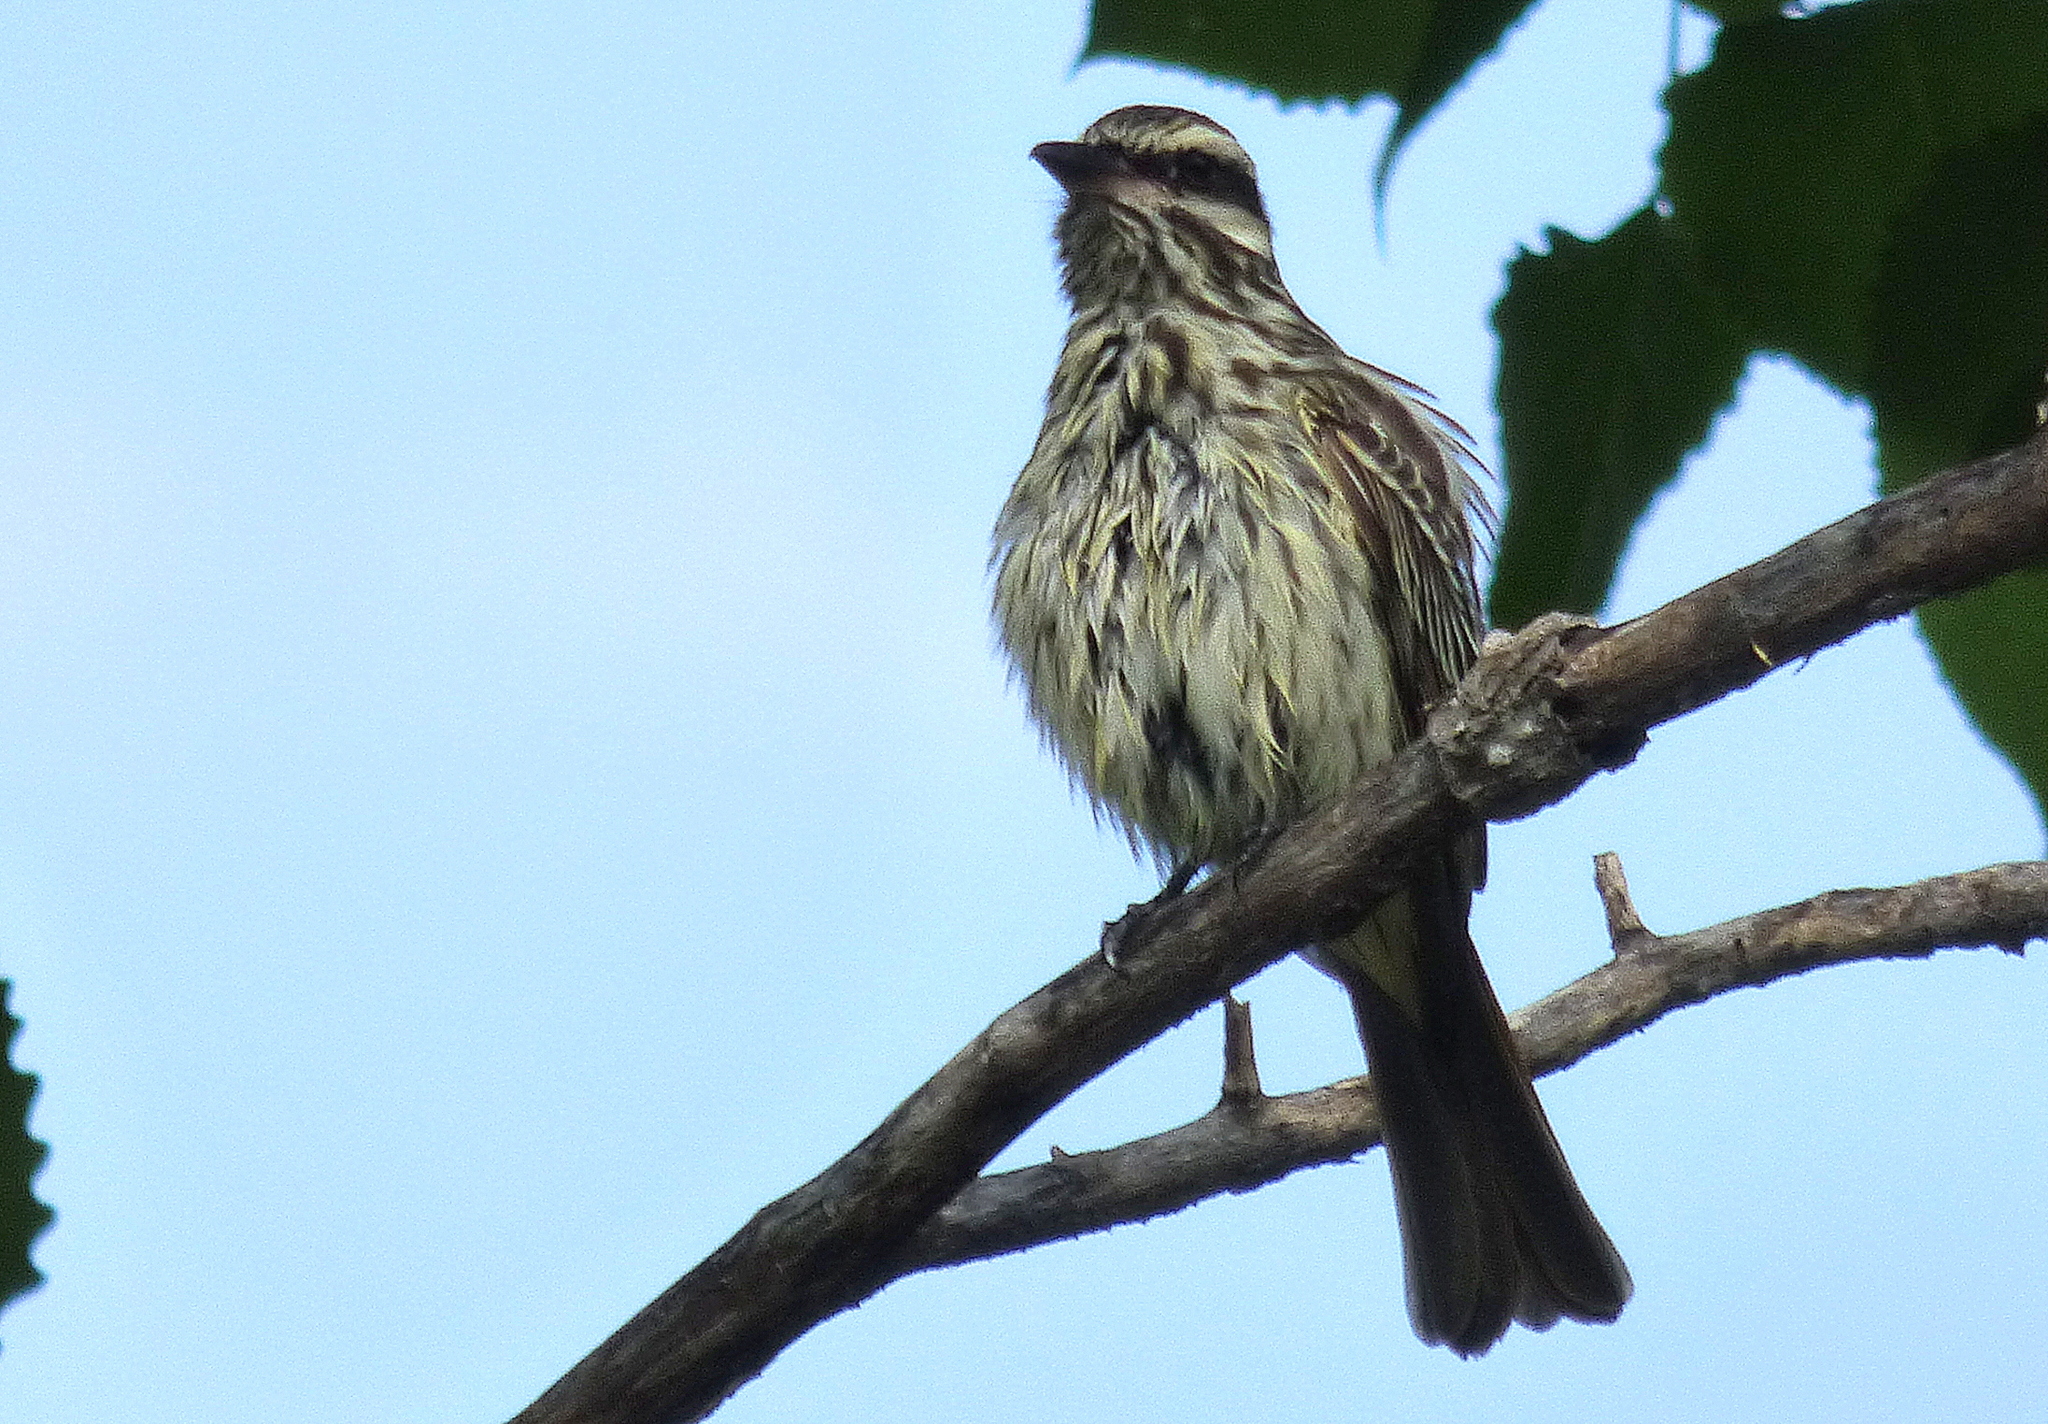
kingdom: Animalia
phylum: Chordata
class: Aves
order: Passeriformes
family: Tyrannidae
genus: Myiodynastes
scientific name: Myiodynastes maculatus
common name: Streaked flycatcher
